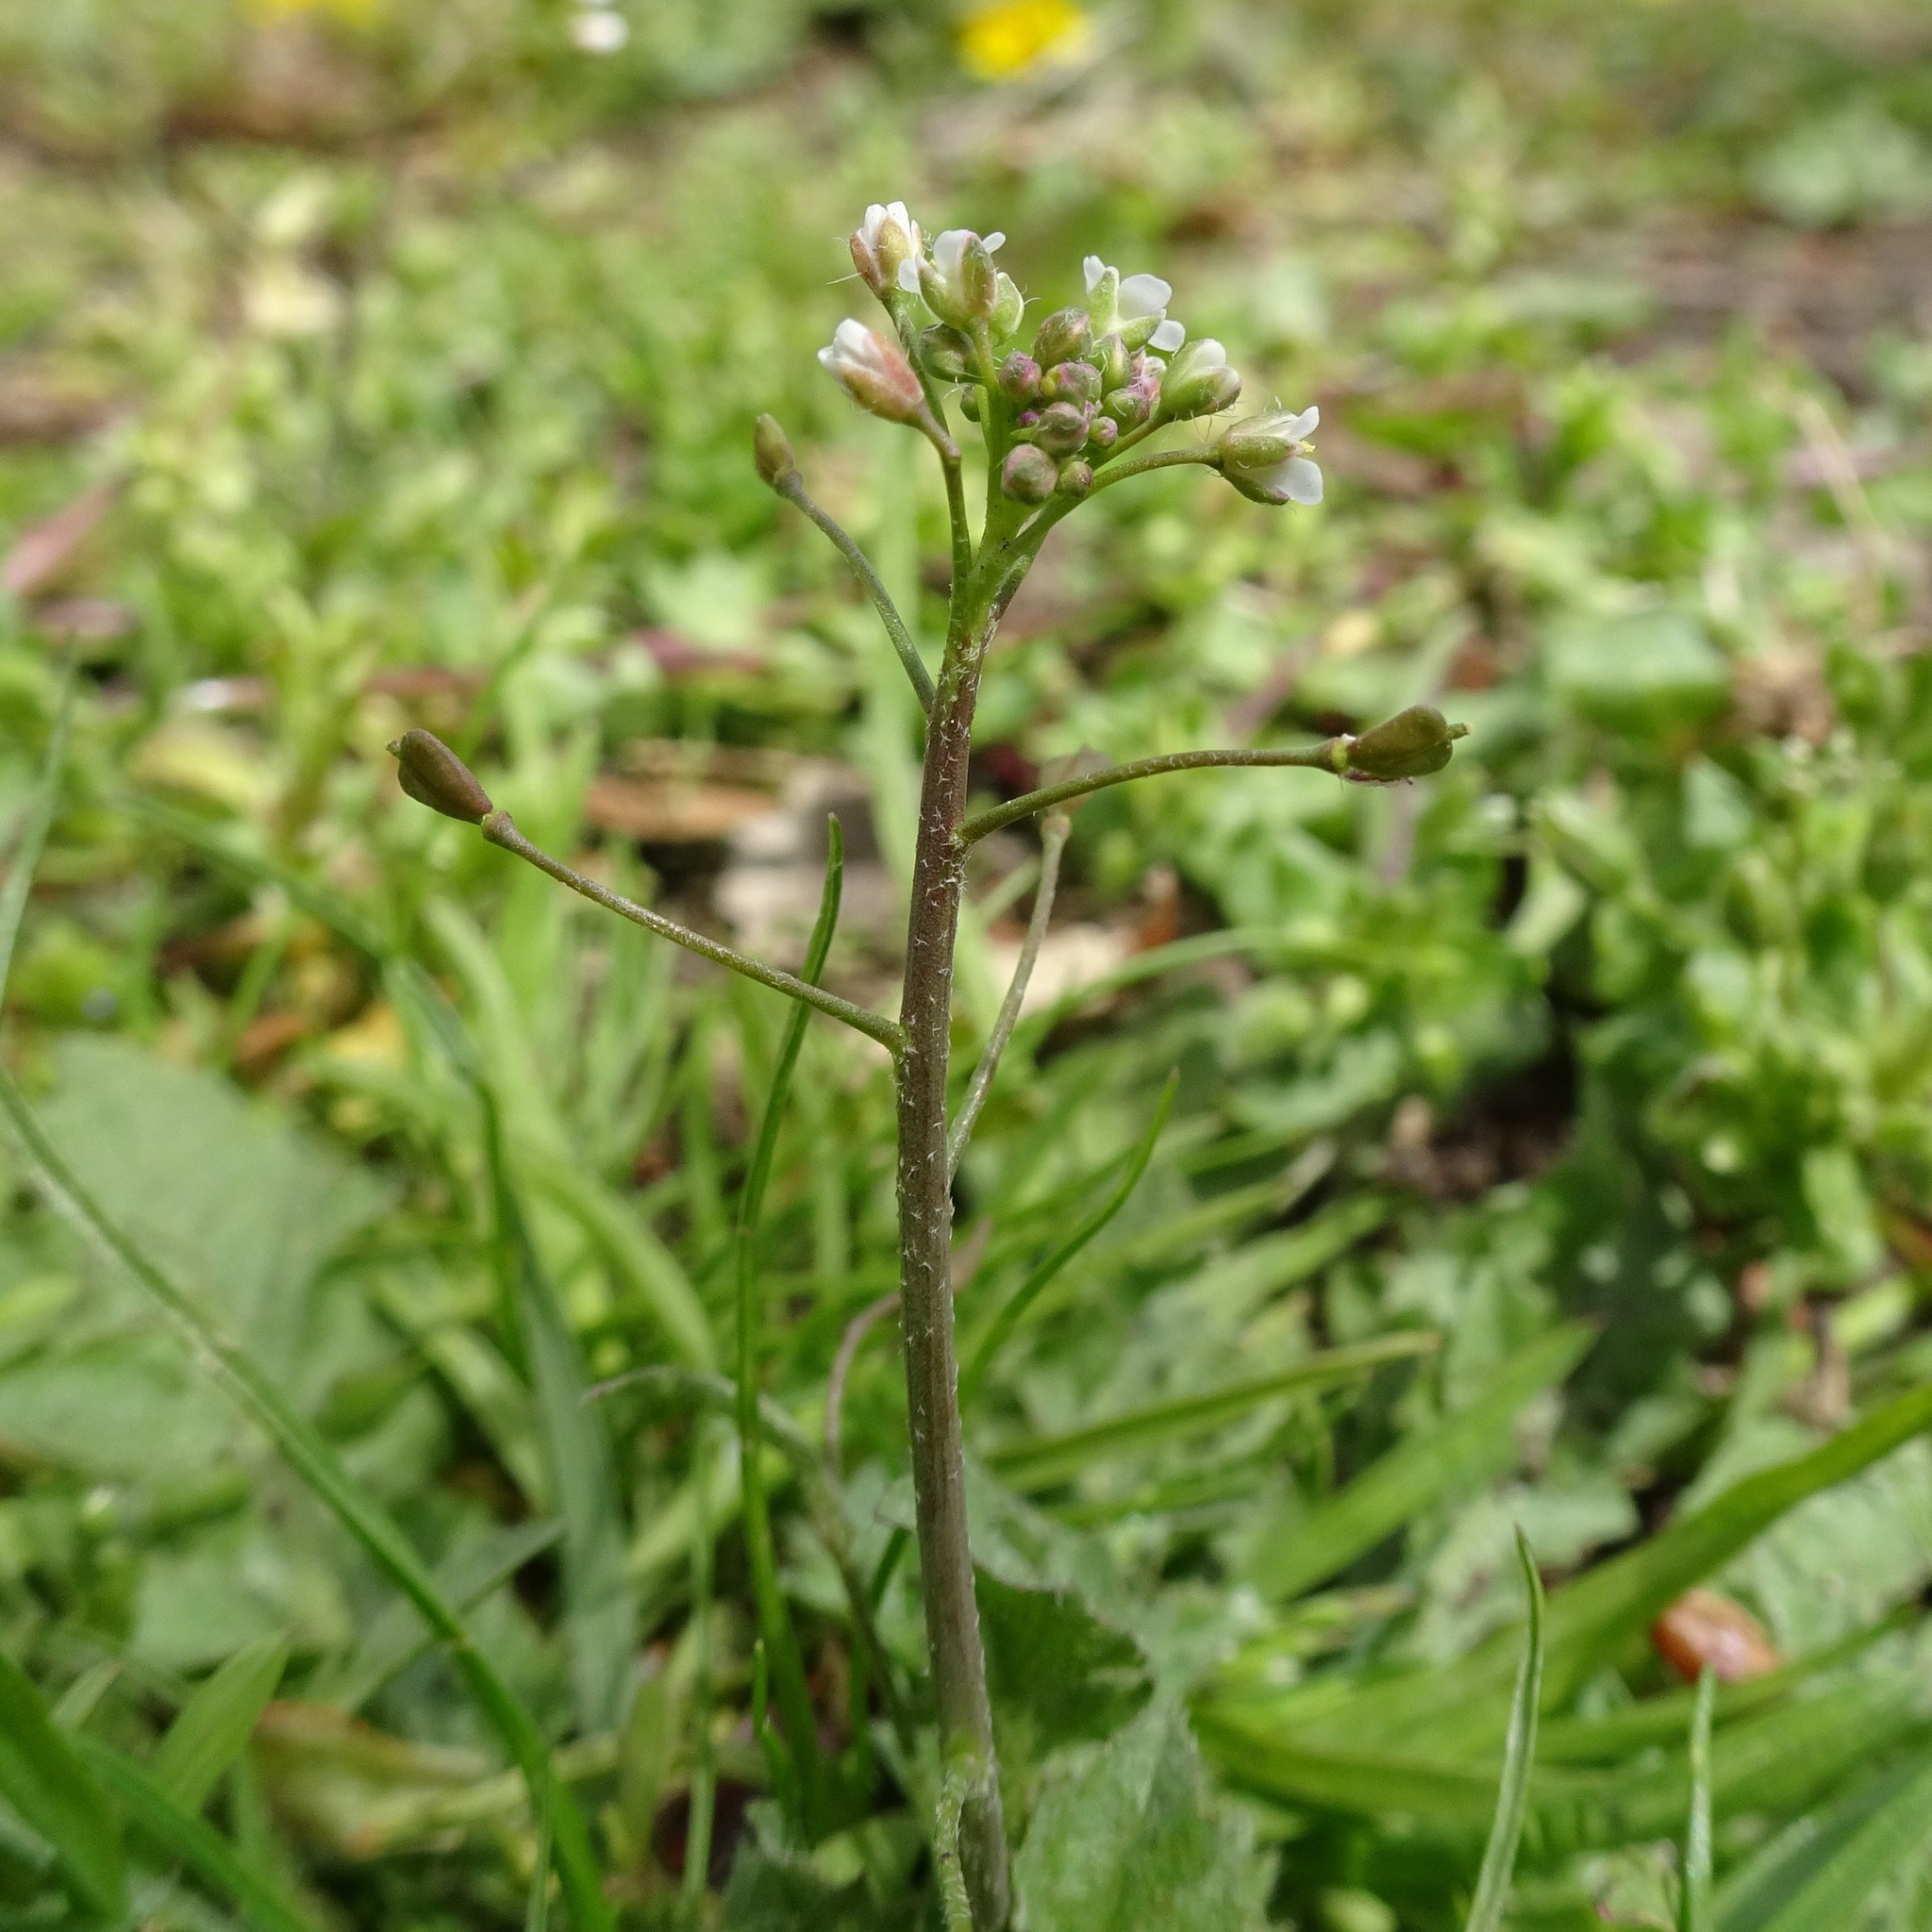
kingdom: Plantae
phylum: Tracheophyta
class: Magnoliopsida
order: Brassicales
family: Brassicaceae
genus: Capsella
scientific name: Capsella bursa-pastoris
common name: Shepherd's purse
